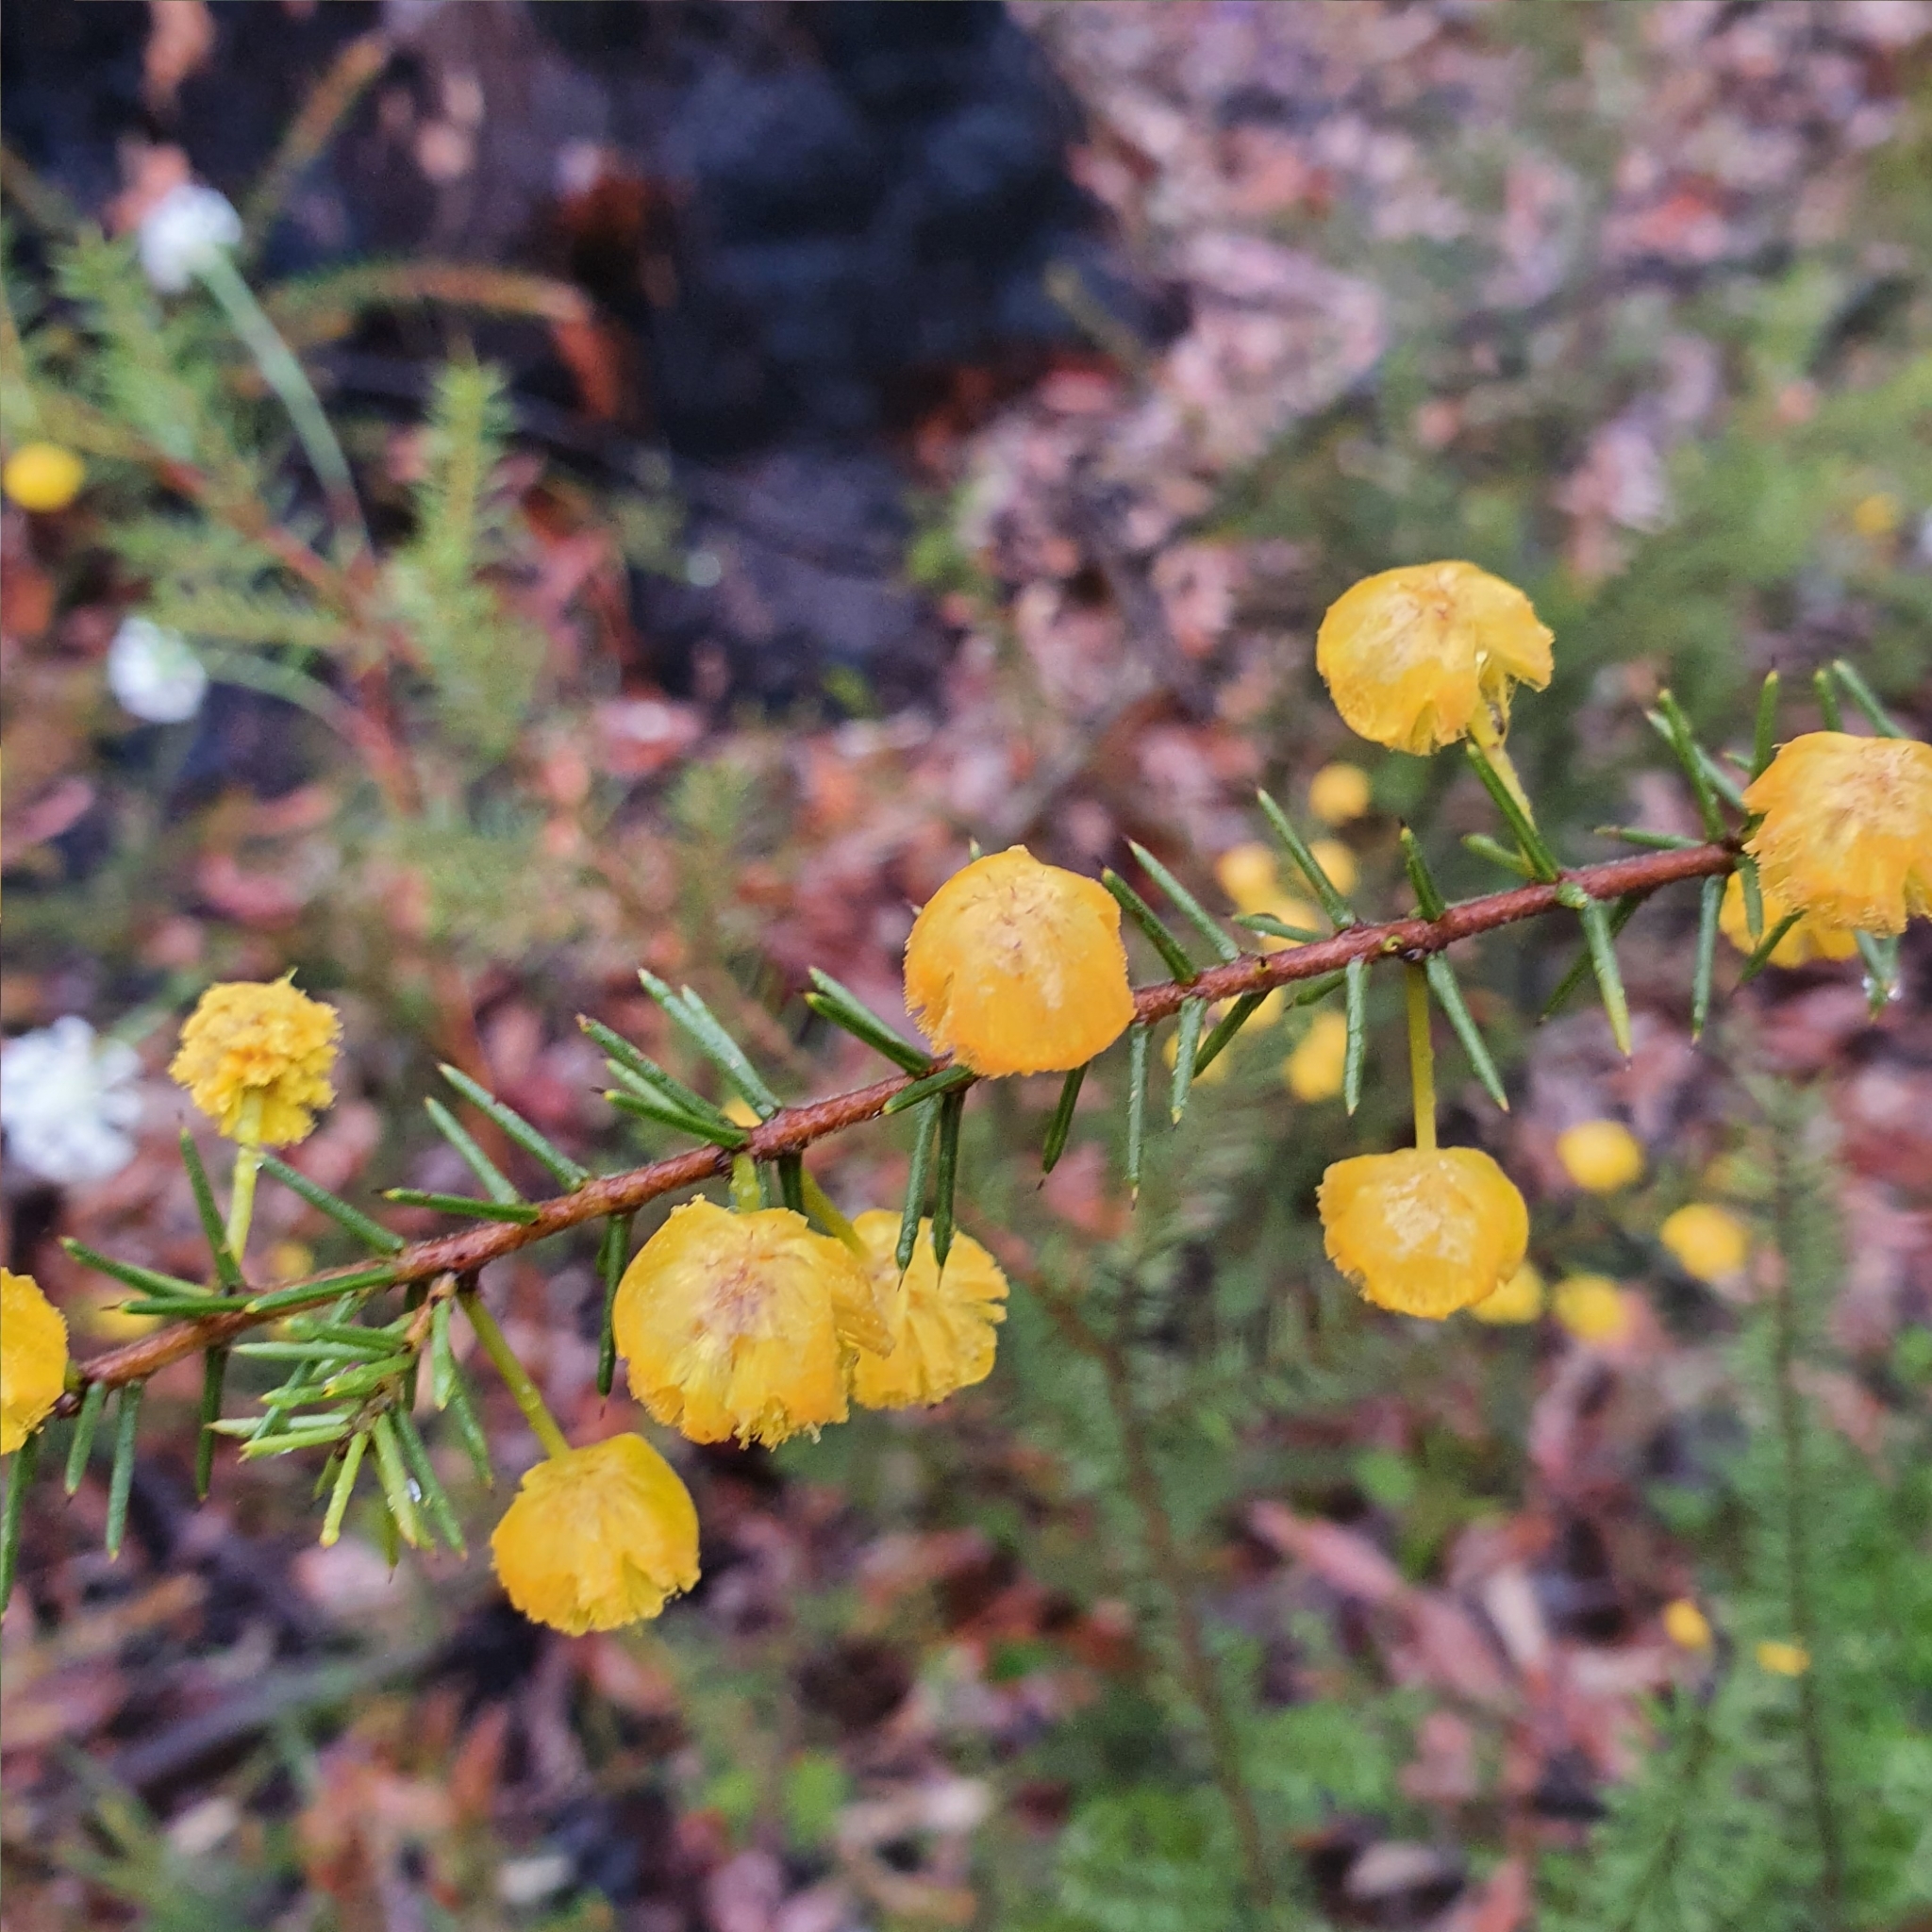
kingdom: Plantae
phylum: Tracheophyta
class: Magnoliopsida
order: Fabales
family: Fabaceae
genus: Acacia
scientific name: Acacia echinula
